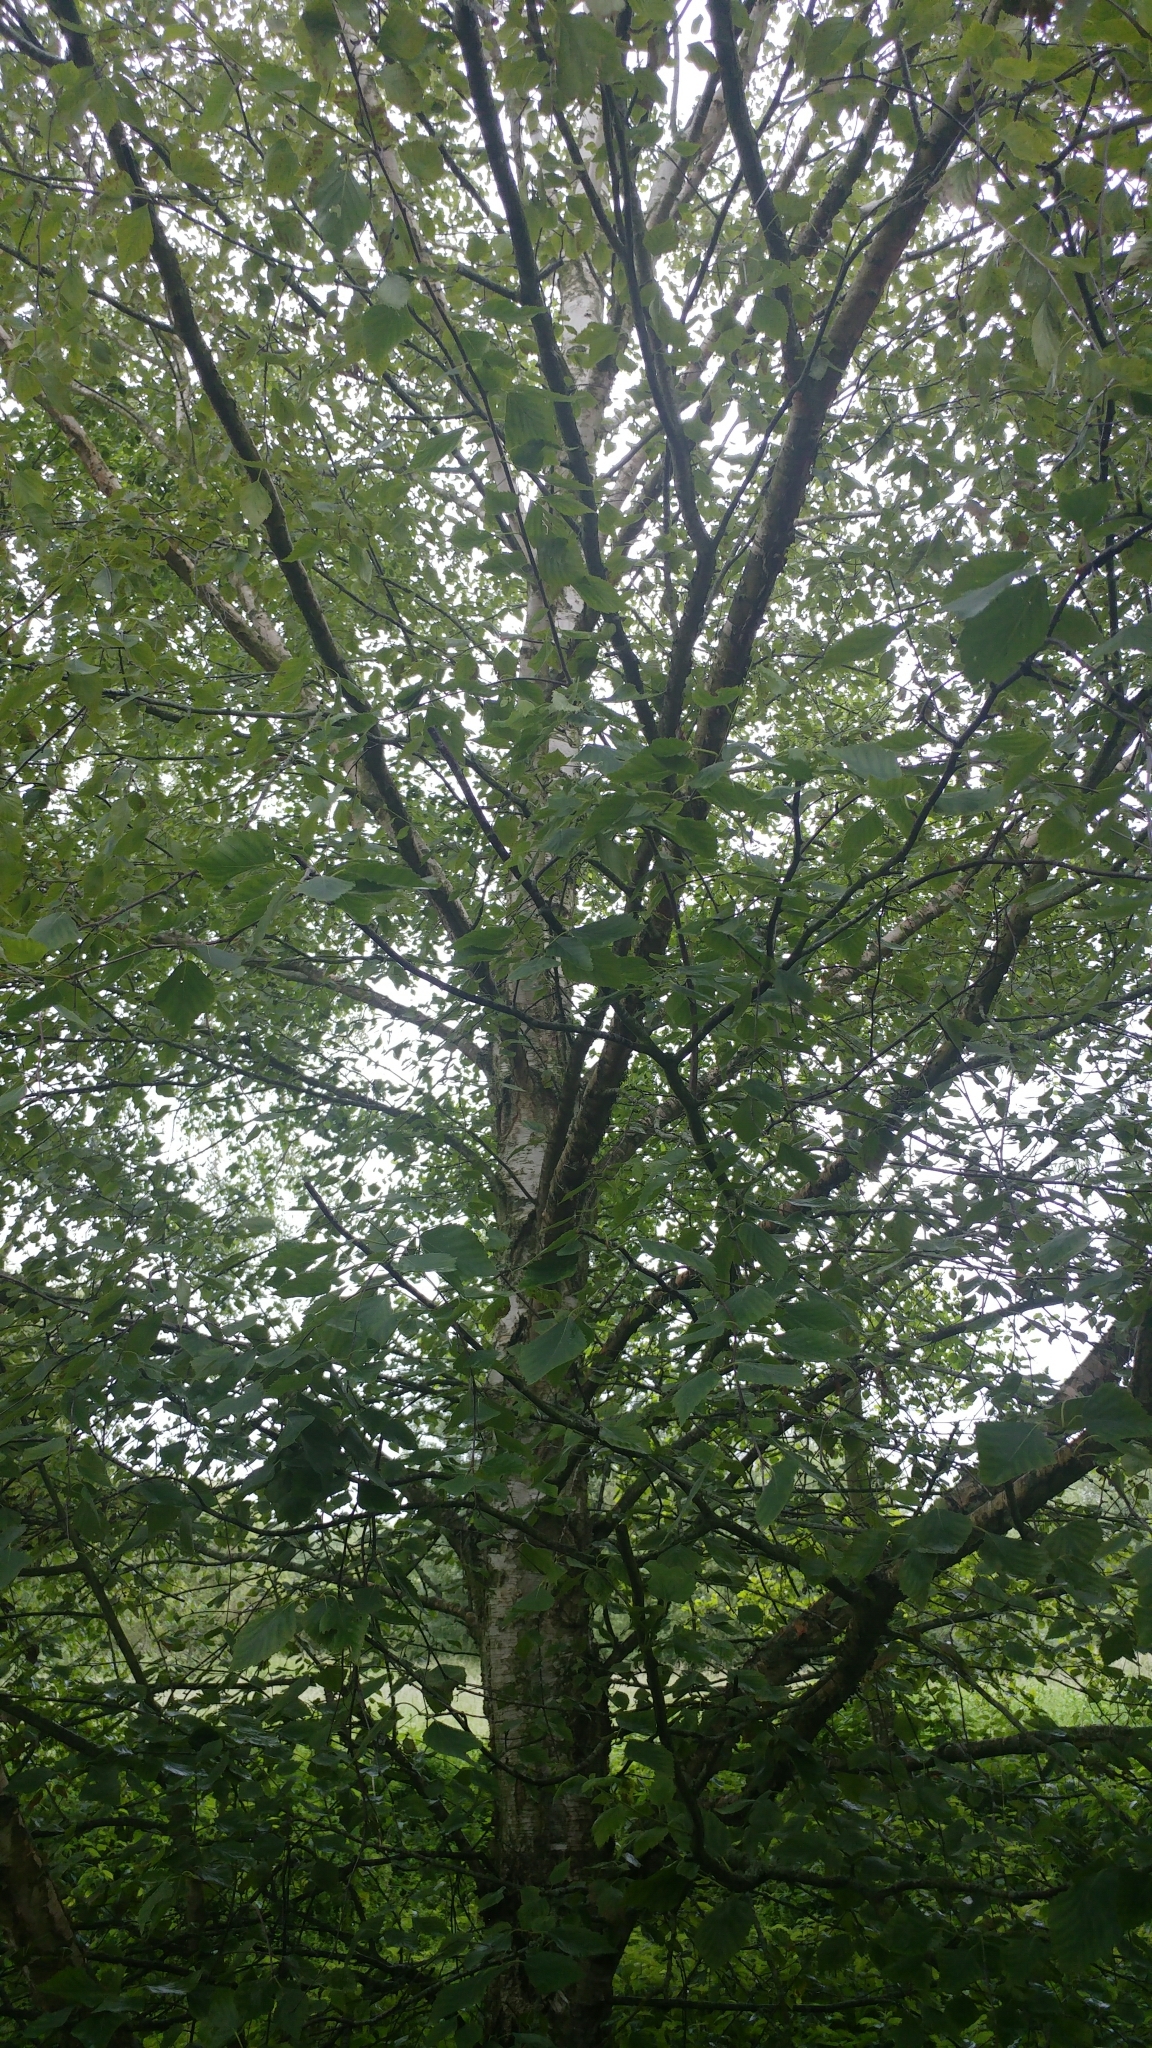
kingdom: Plantae
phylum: Tracheophyta
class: Magnoliopsida
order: Fagales
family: Betulaceae
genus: Betula
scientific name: Betula pendula
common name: Silver birch
